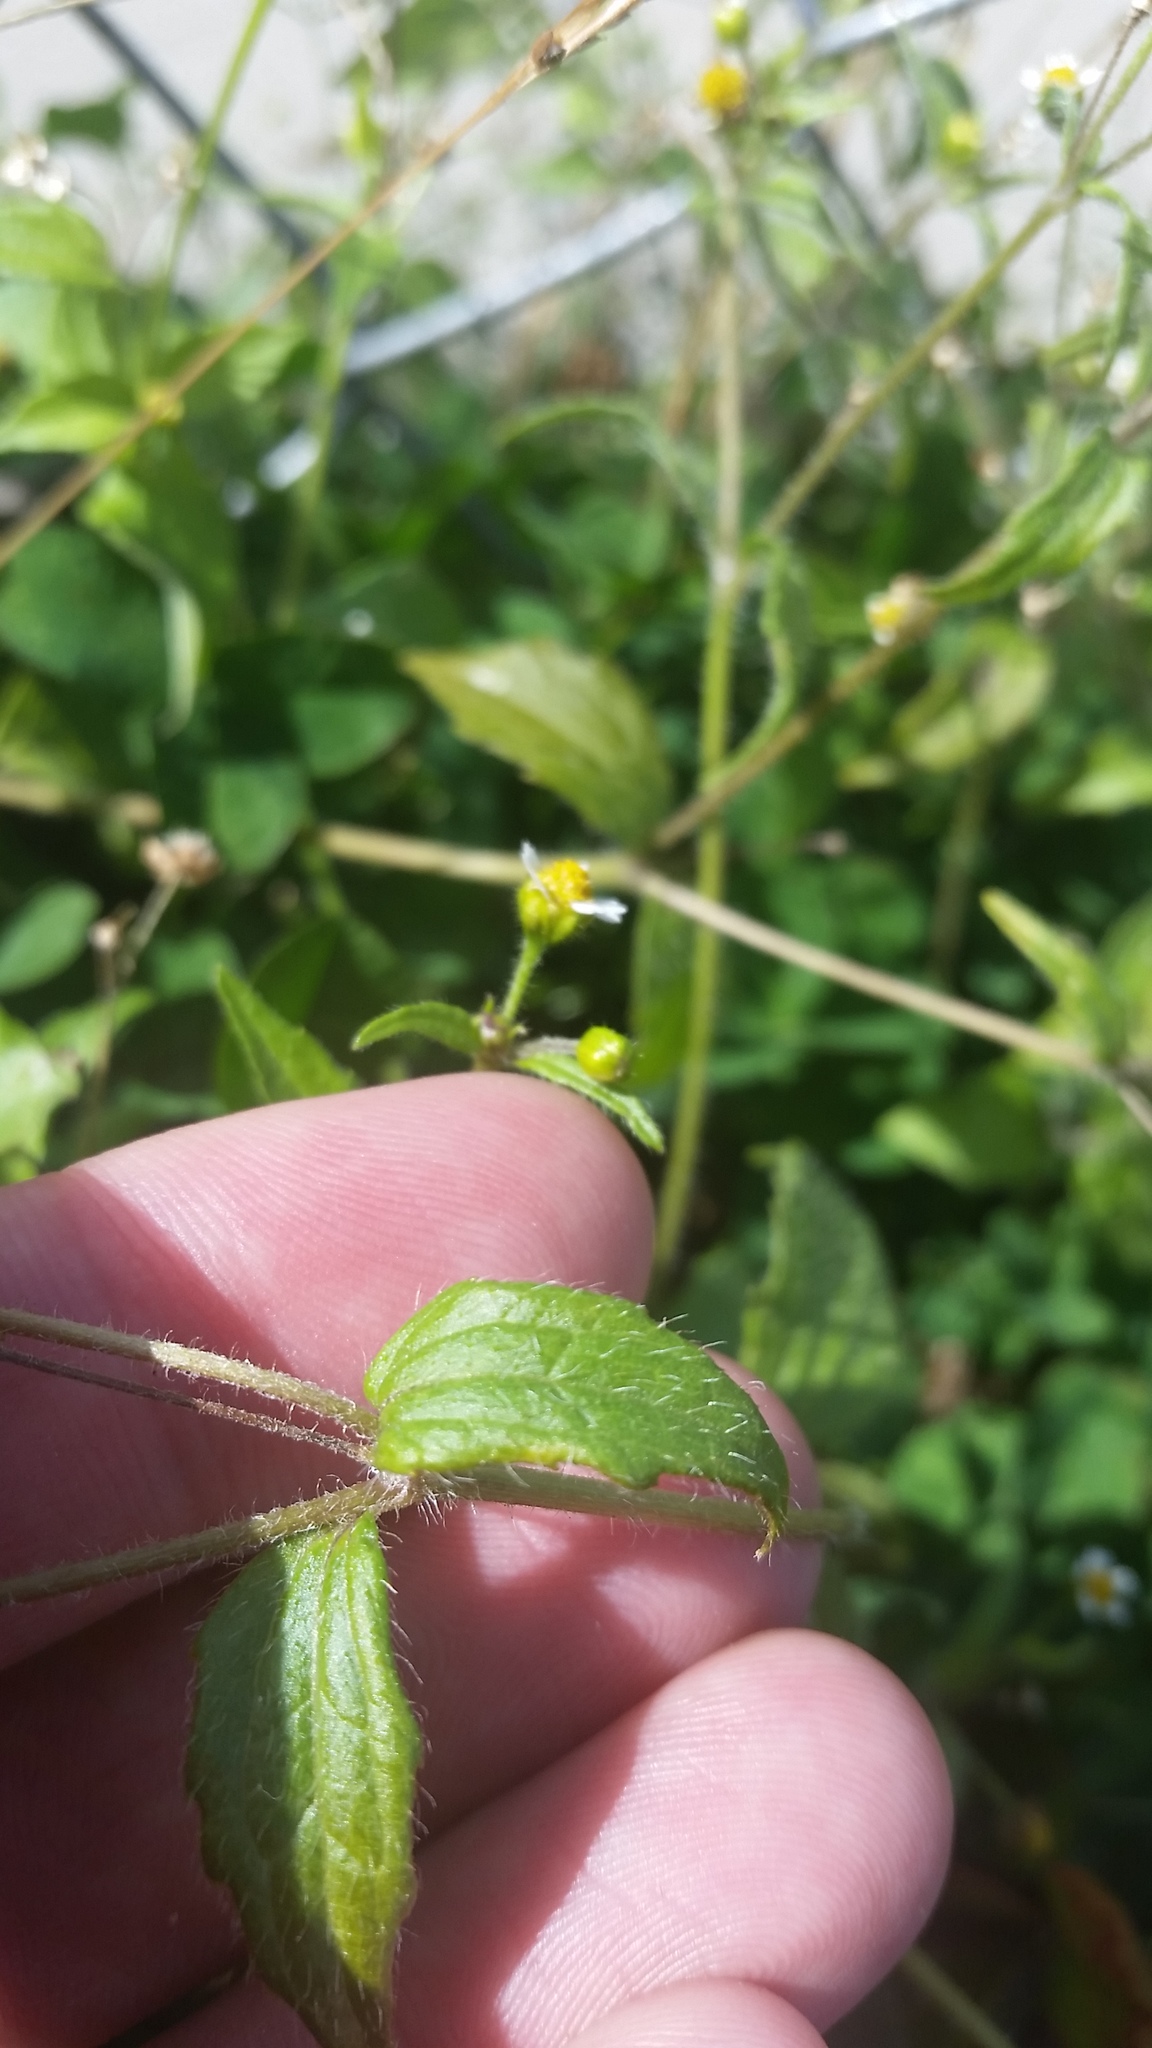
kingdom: Plantae
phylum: Tracheophyta
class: Magnoliopsida
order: Asterales
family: Asteraceae
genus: Galinsoga
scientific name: Galinsoga parviflora
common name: Gallant soldier
